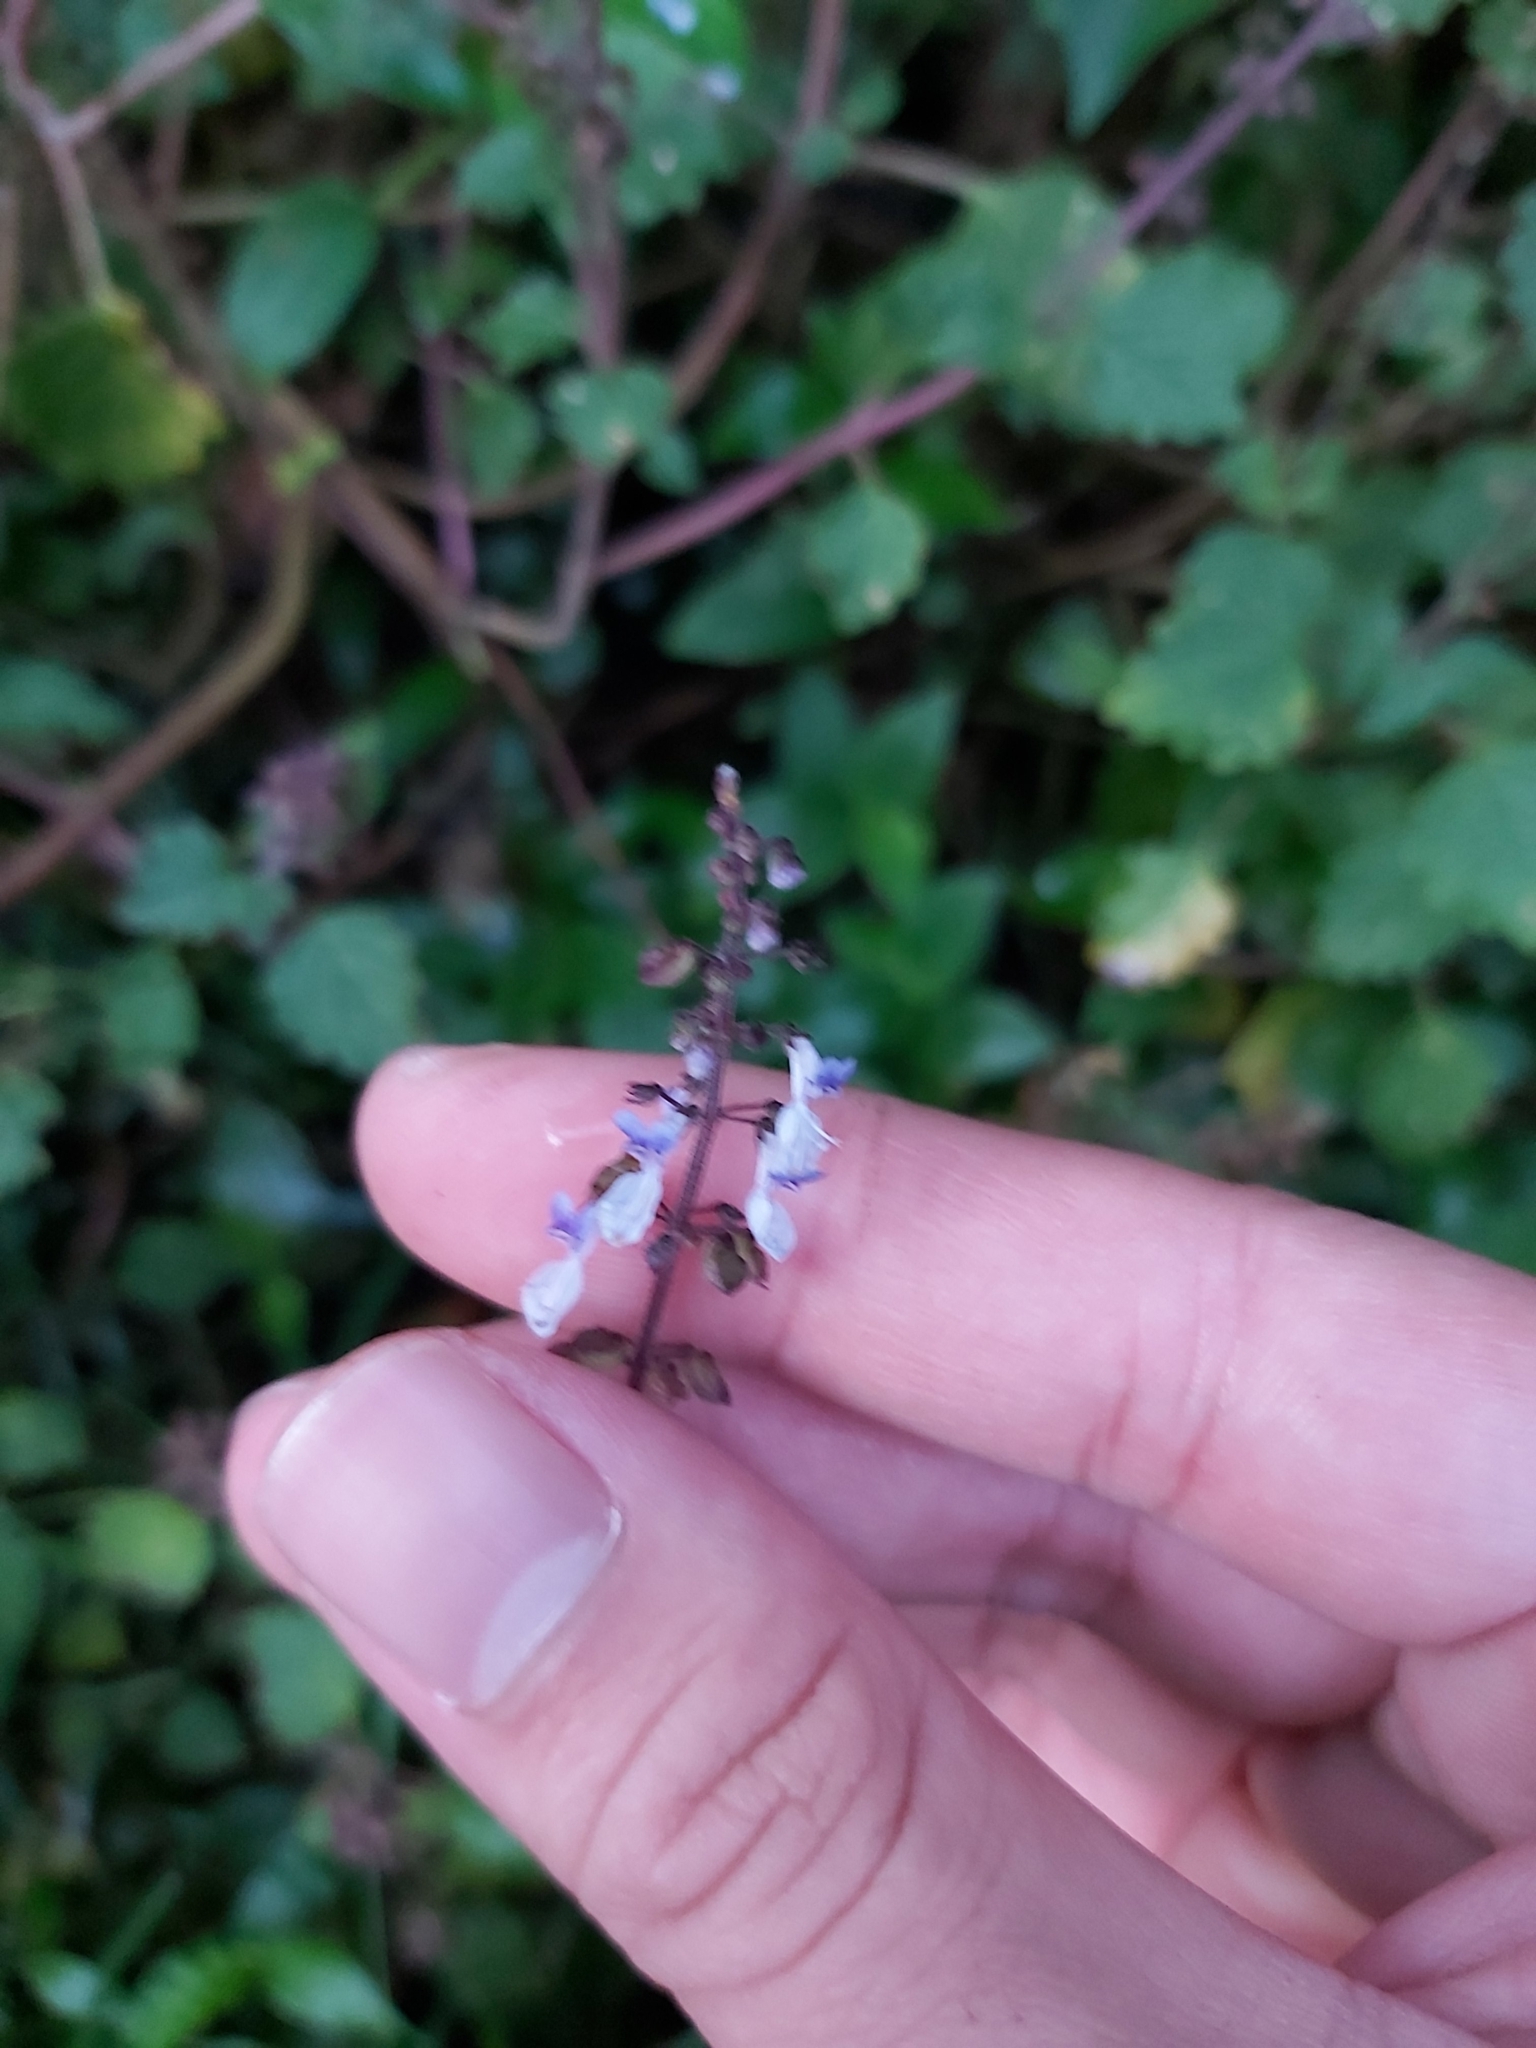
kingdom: Plantae
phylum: Tracheophyta
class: Magnoliopsida
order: Lamiales
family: Lamiaceae
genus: Coleus
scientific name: Coleus australis
